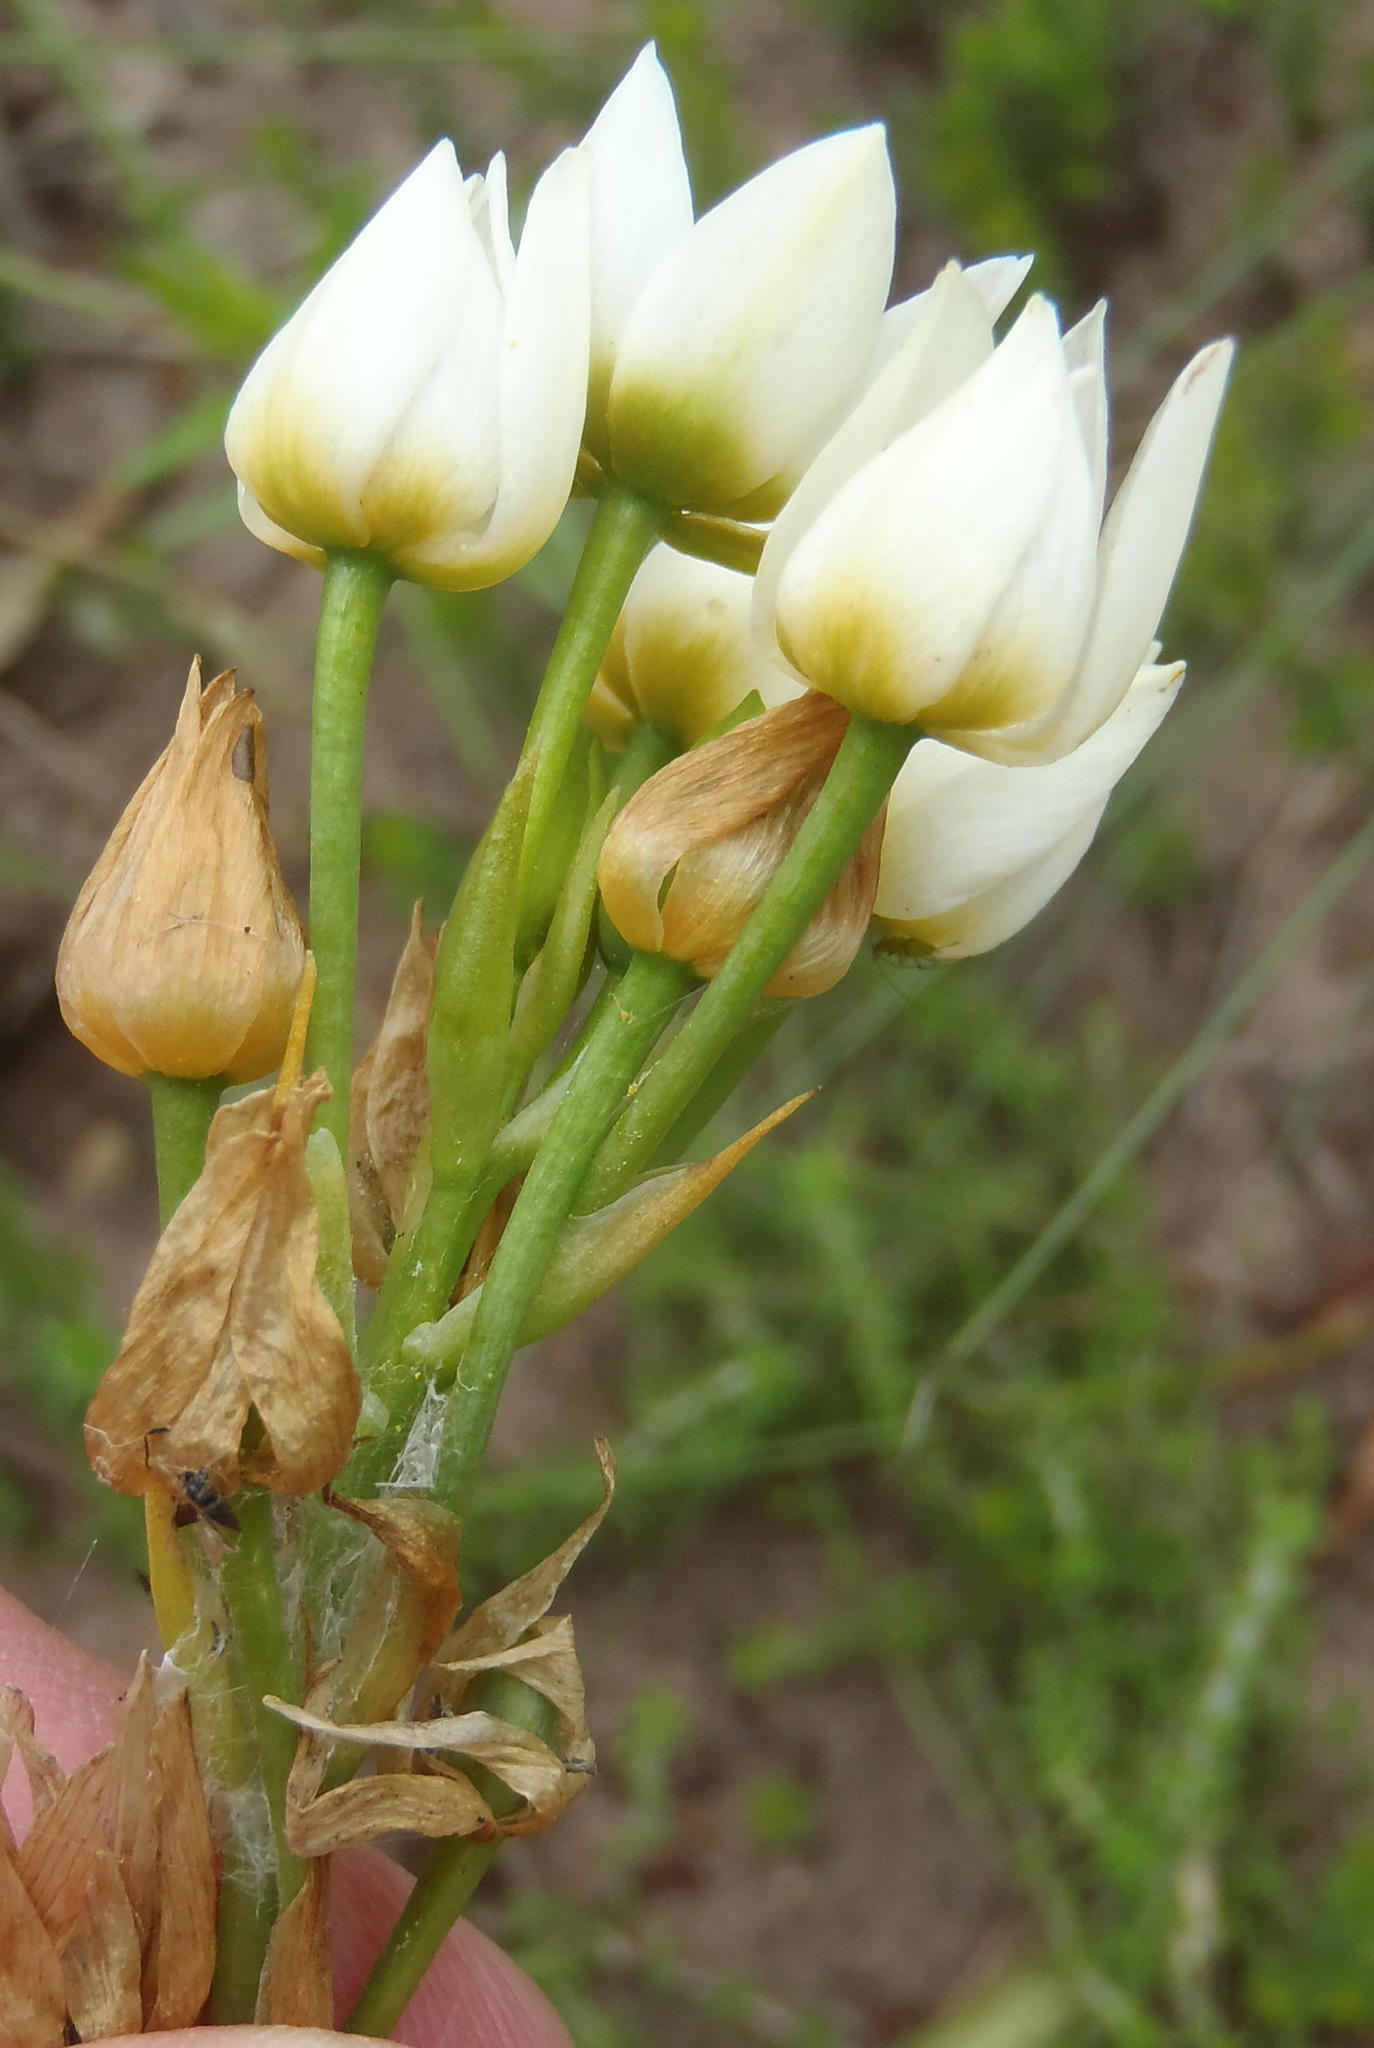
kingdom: Plantae
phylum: Tracheophyta
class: Liliopsida
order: Asparagales
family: Asparagaceae
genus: Ornithogalum
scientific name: Ornithogalum dubium
